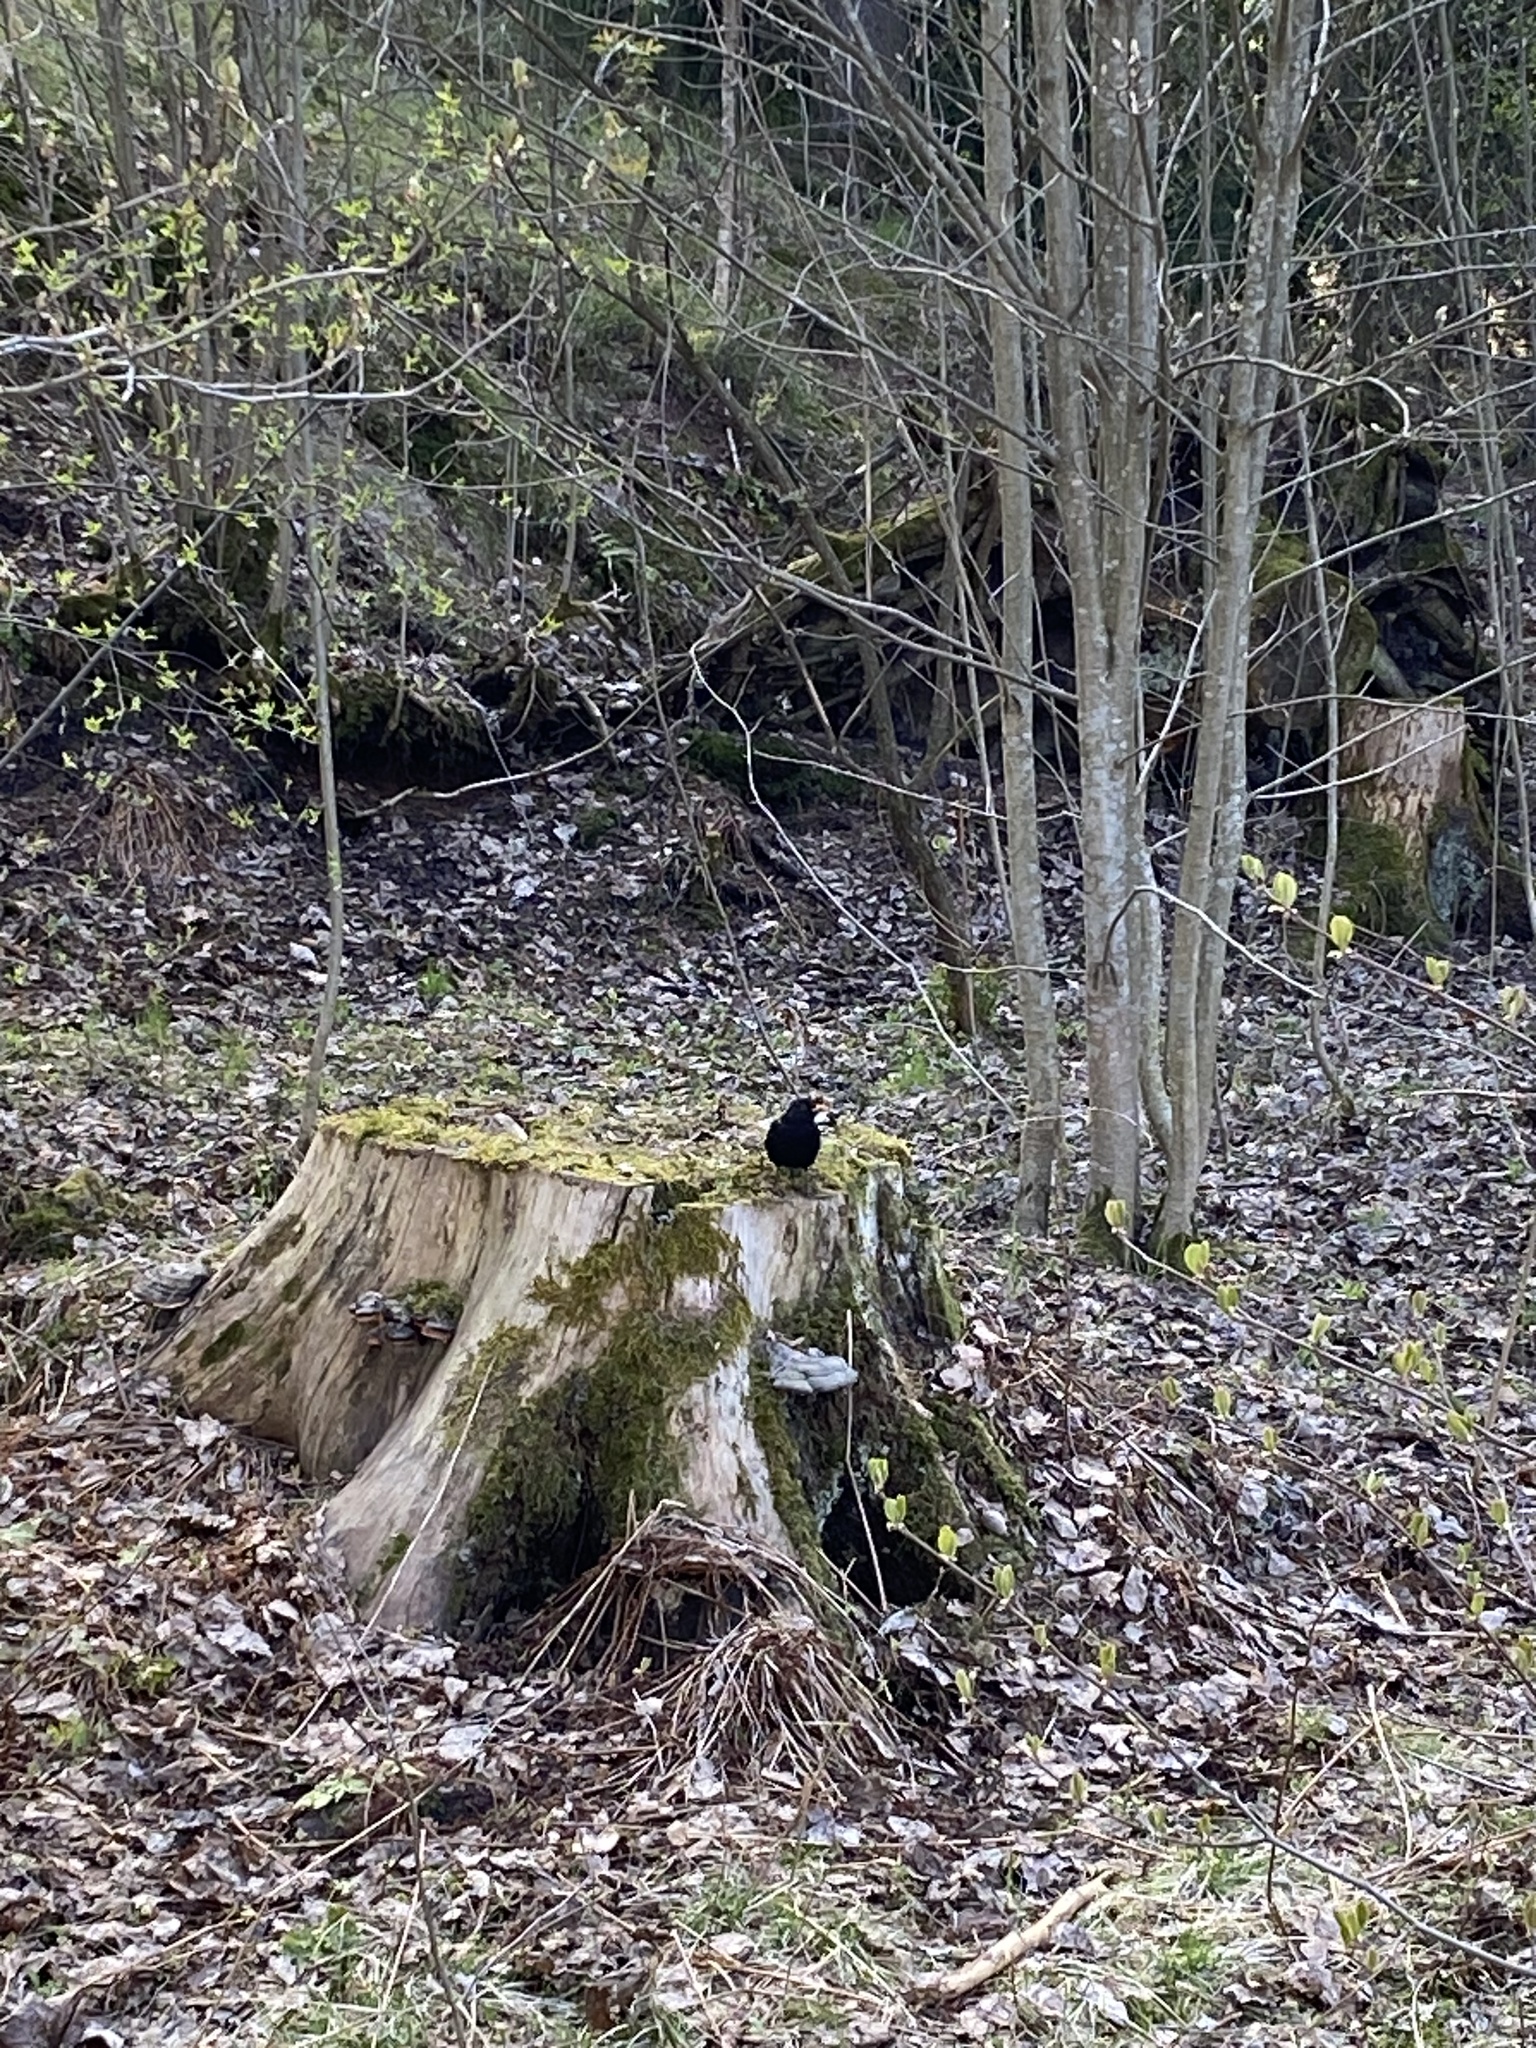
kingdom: Animalia
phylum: Chordata
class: Aves
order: Passeriformes
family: Turdidae
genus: Turdus
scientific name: Turdus merula
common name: Common blackbird
